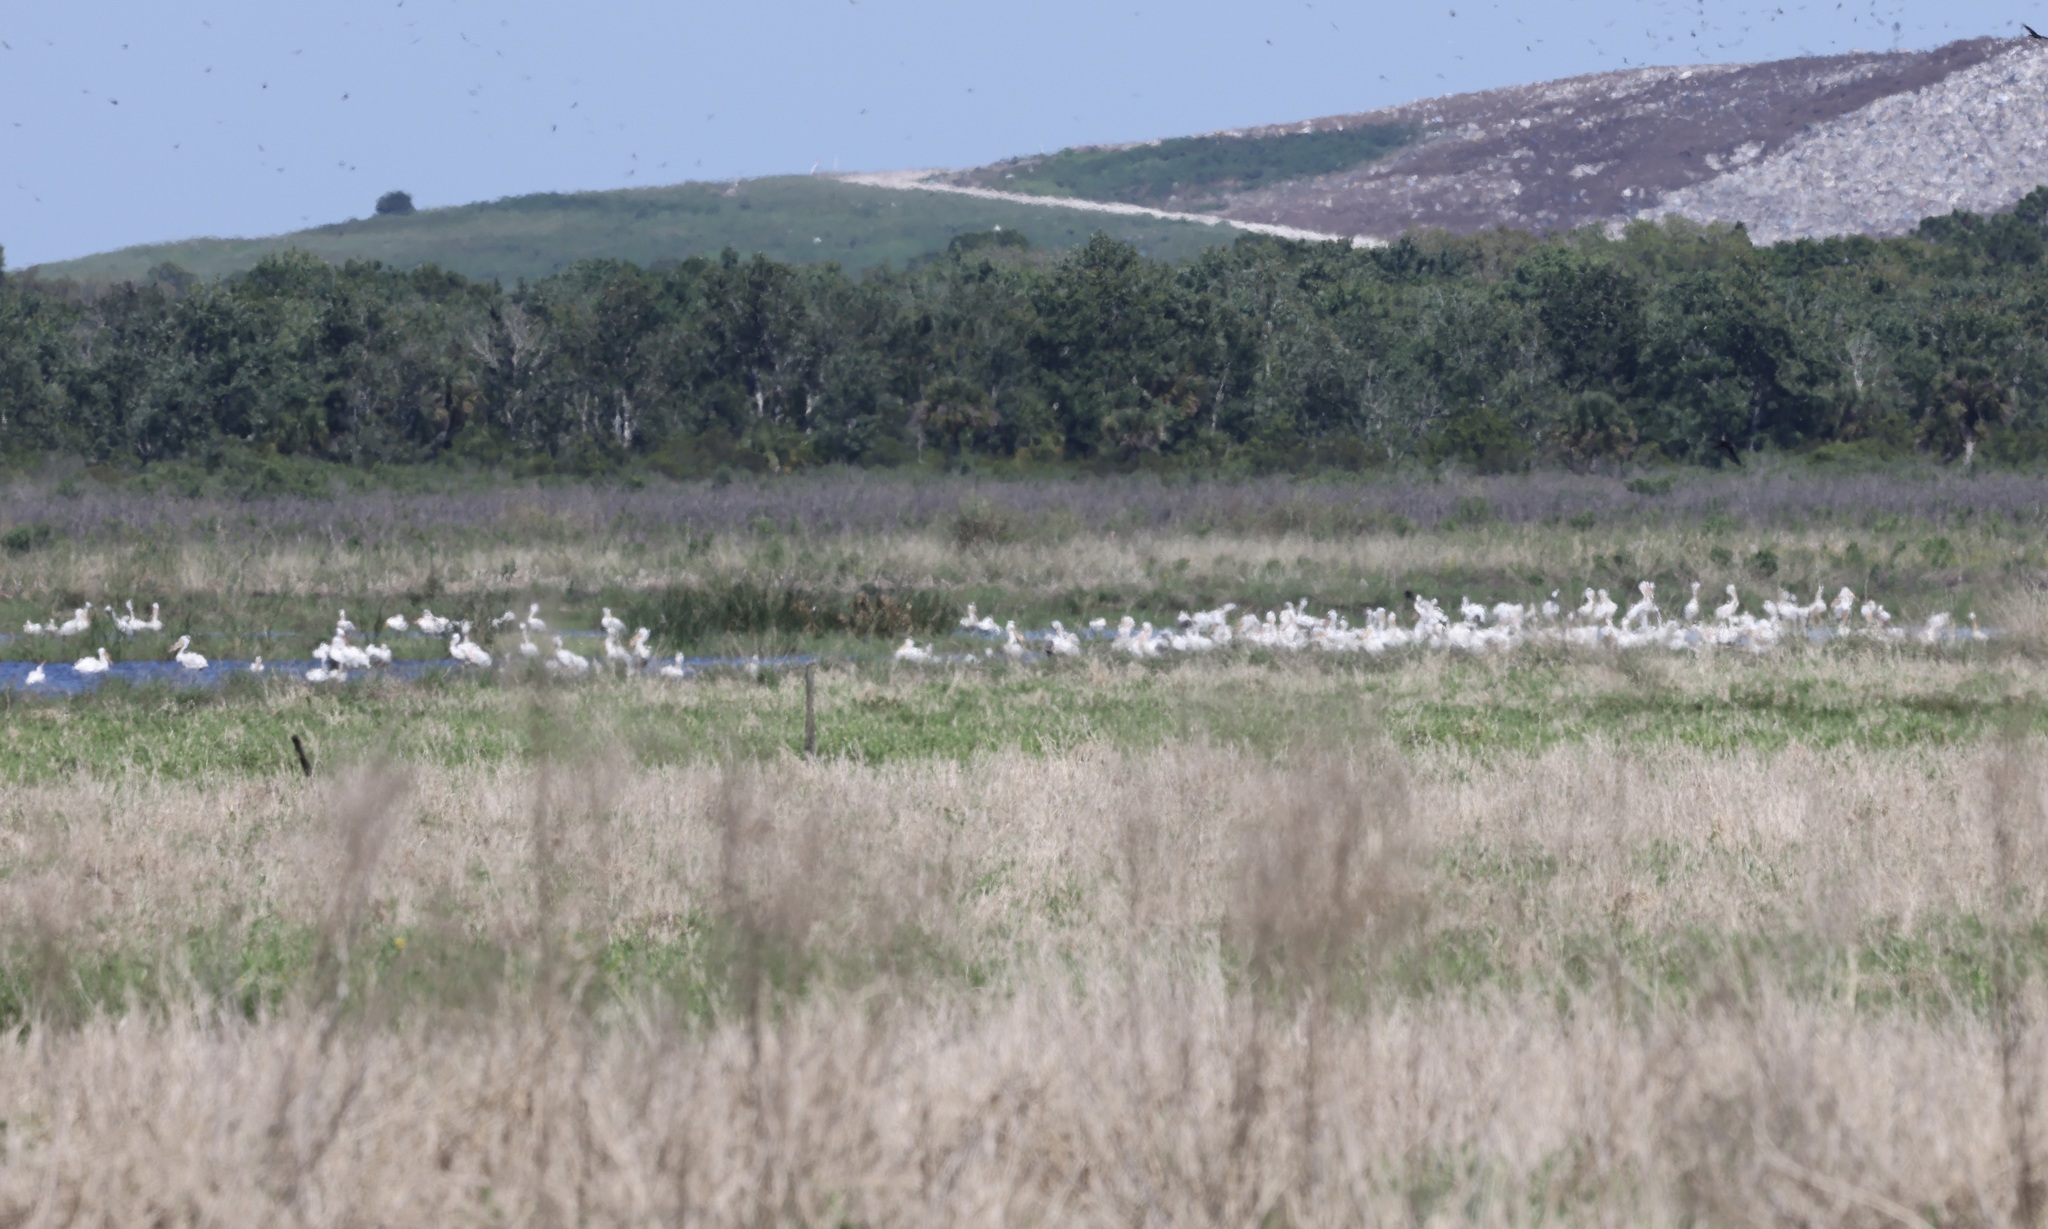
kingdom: Animalia
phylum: Chordata
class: Aves
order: Pelecaniformes
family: Pelecanidae
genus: Pelecanus
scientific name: Pelecanus erythrorhynchos
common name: American white pelican
